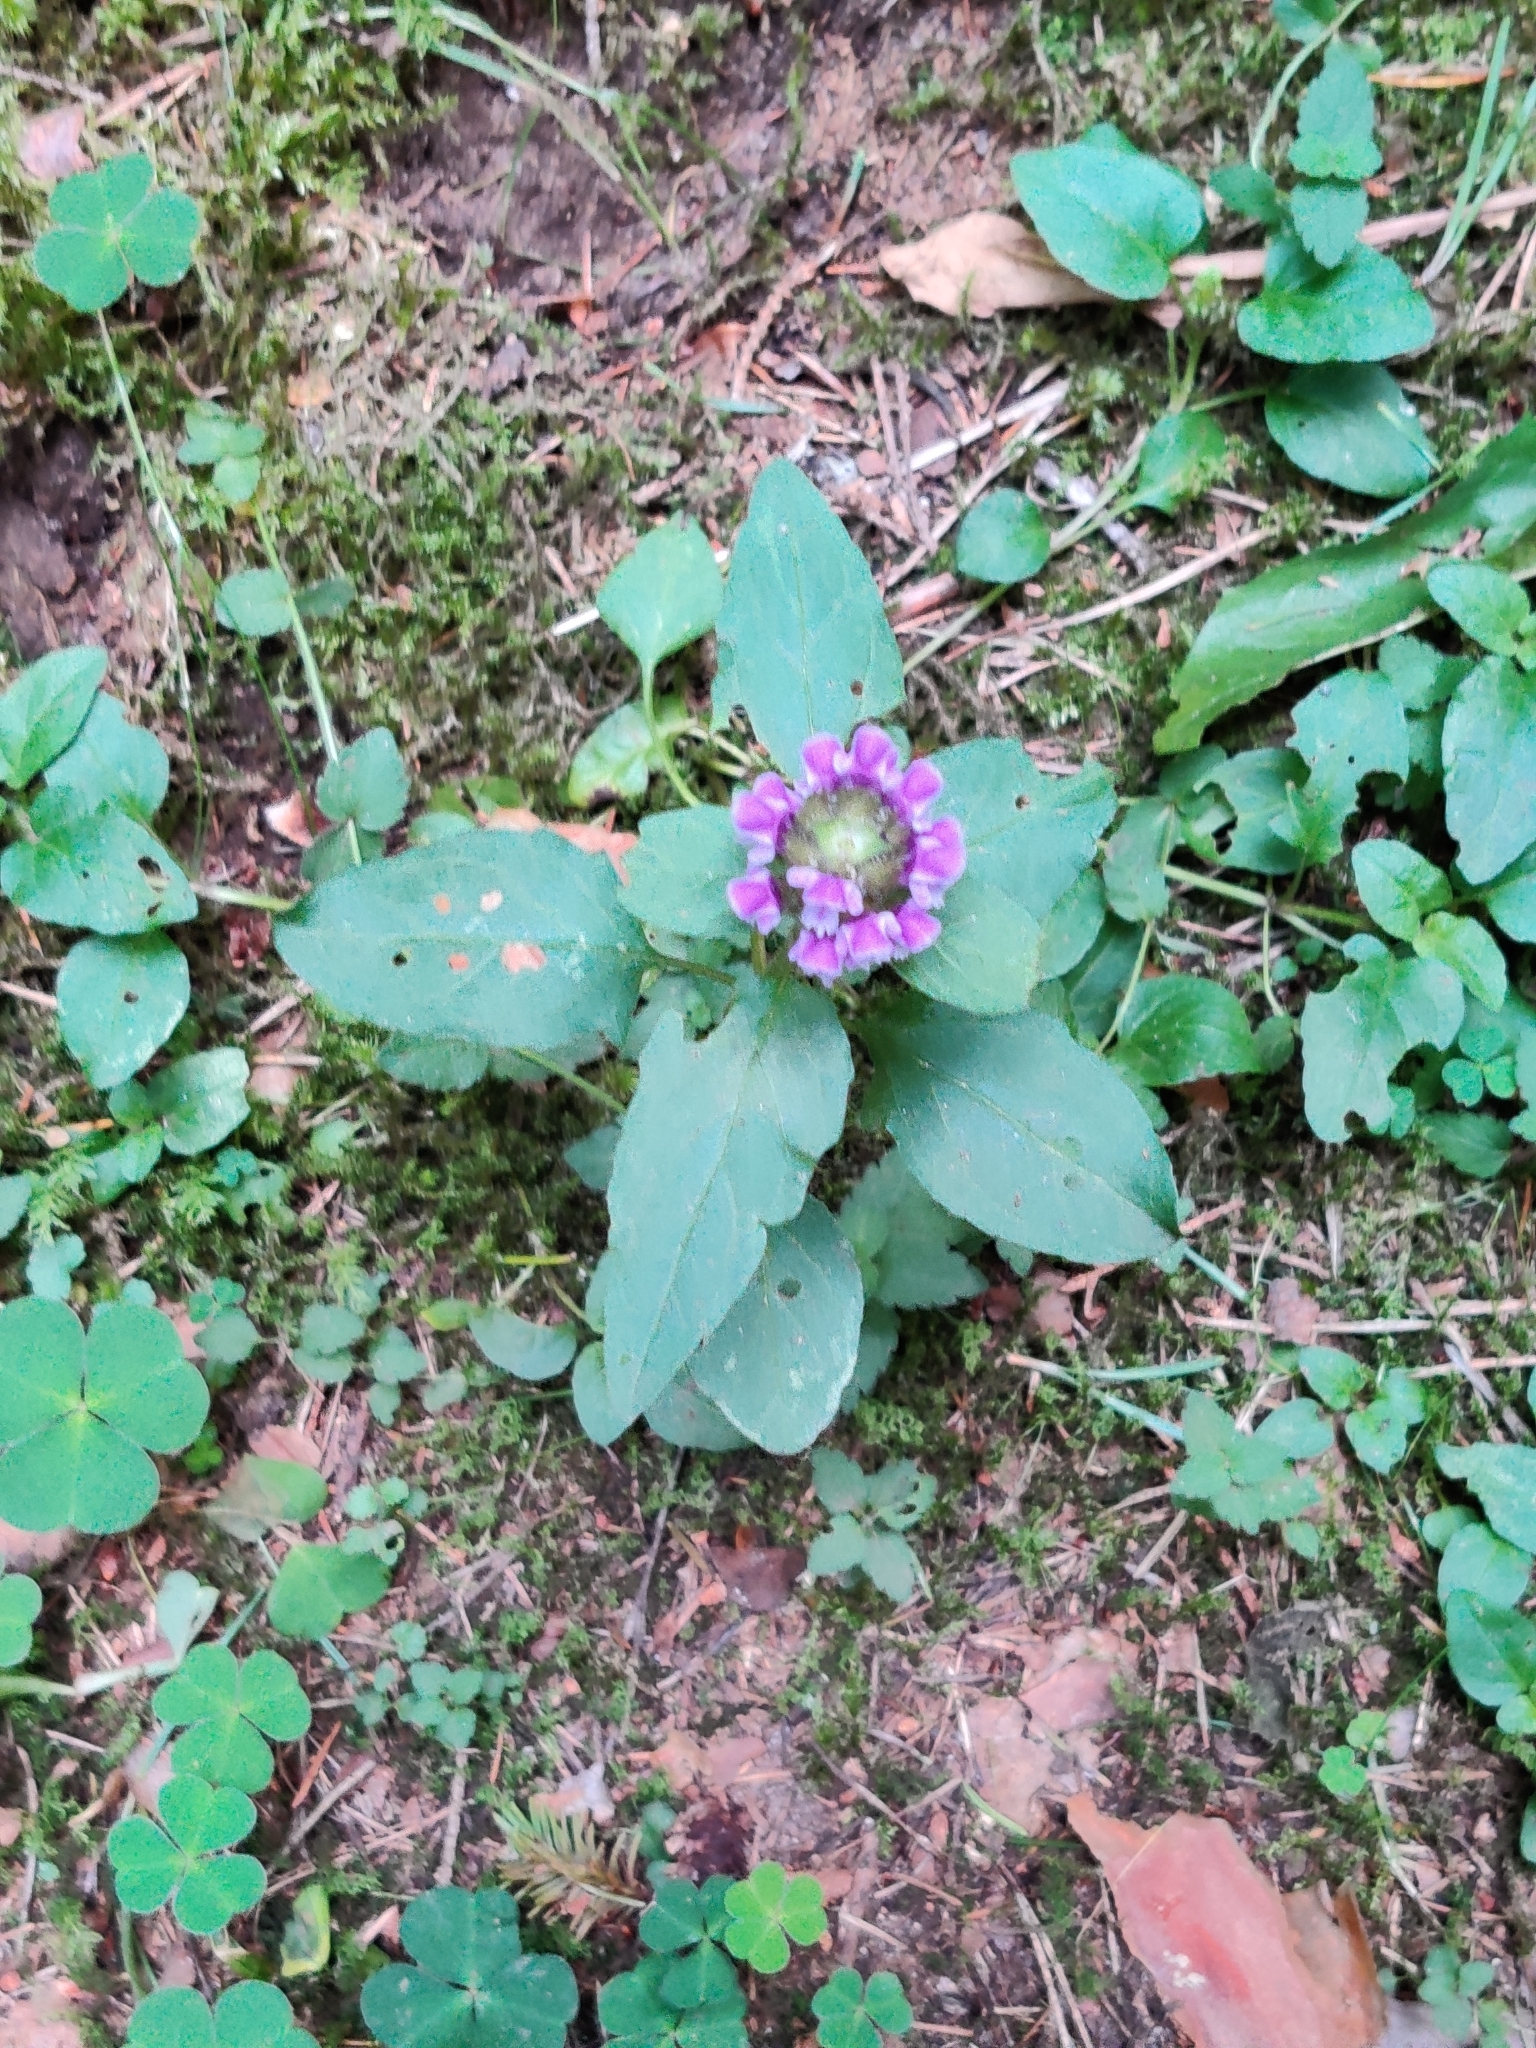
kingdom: Plantae
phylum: Tracheophyta
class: Magnoliopsida
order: Lamiales
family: Lamiaceae
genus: Prunella
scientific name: Prunella vulgaris
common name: Heal-all
